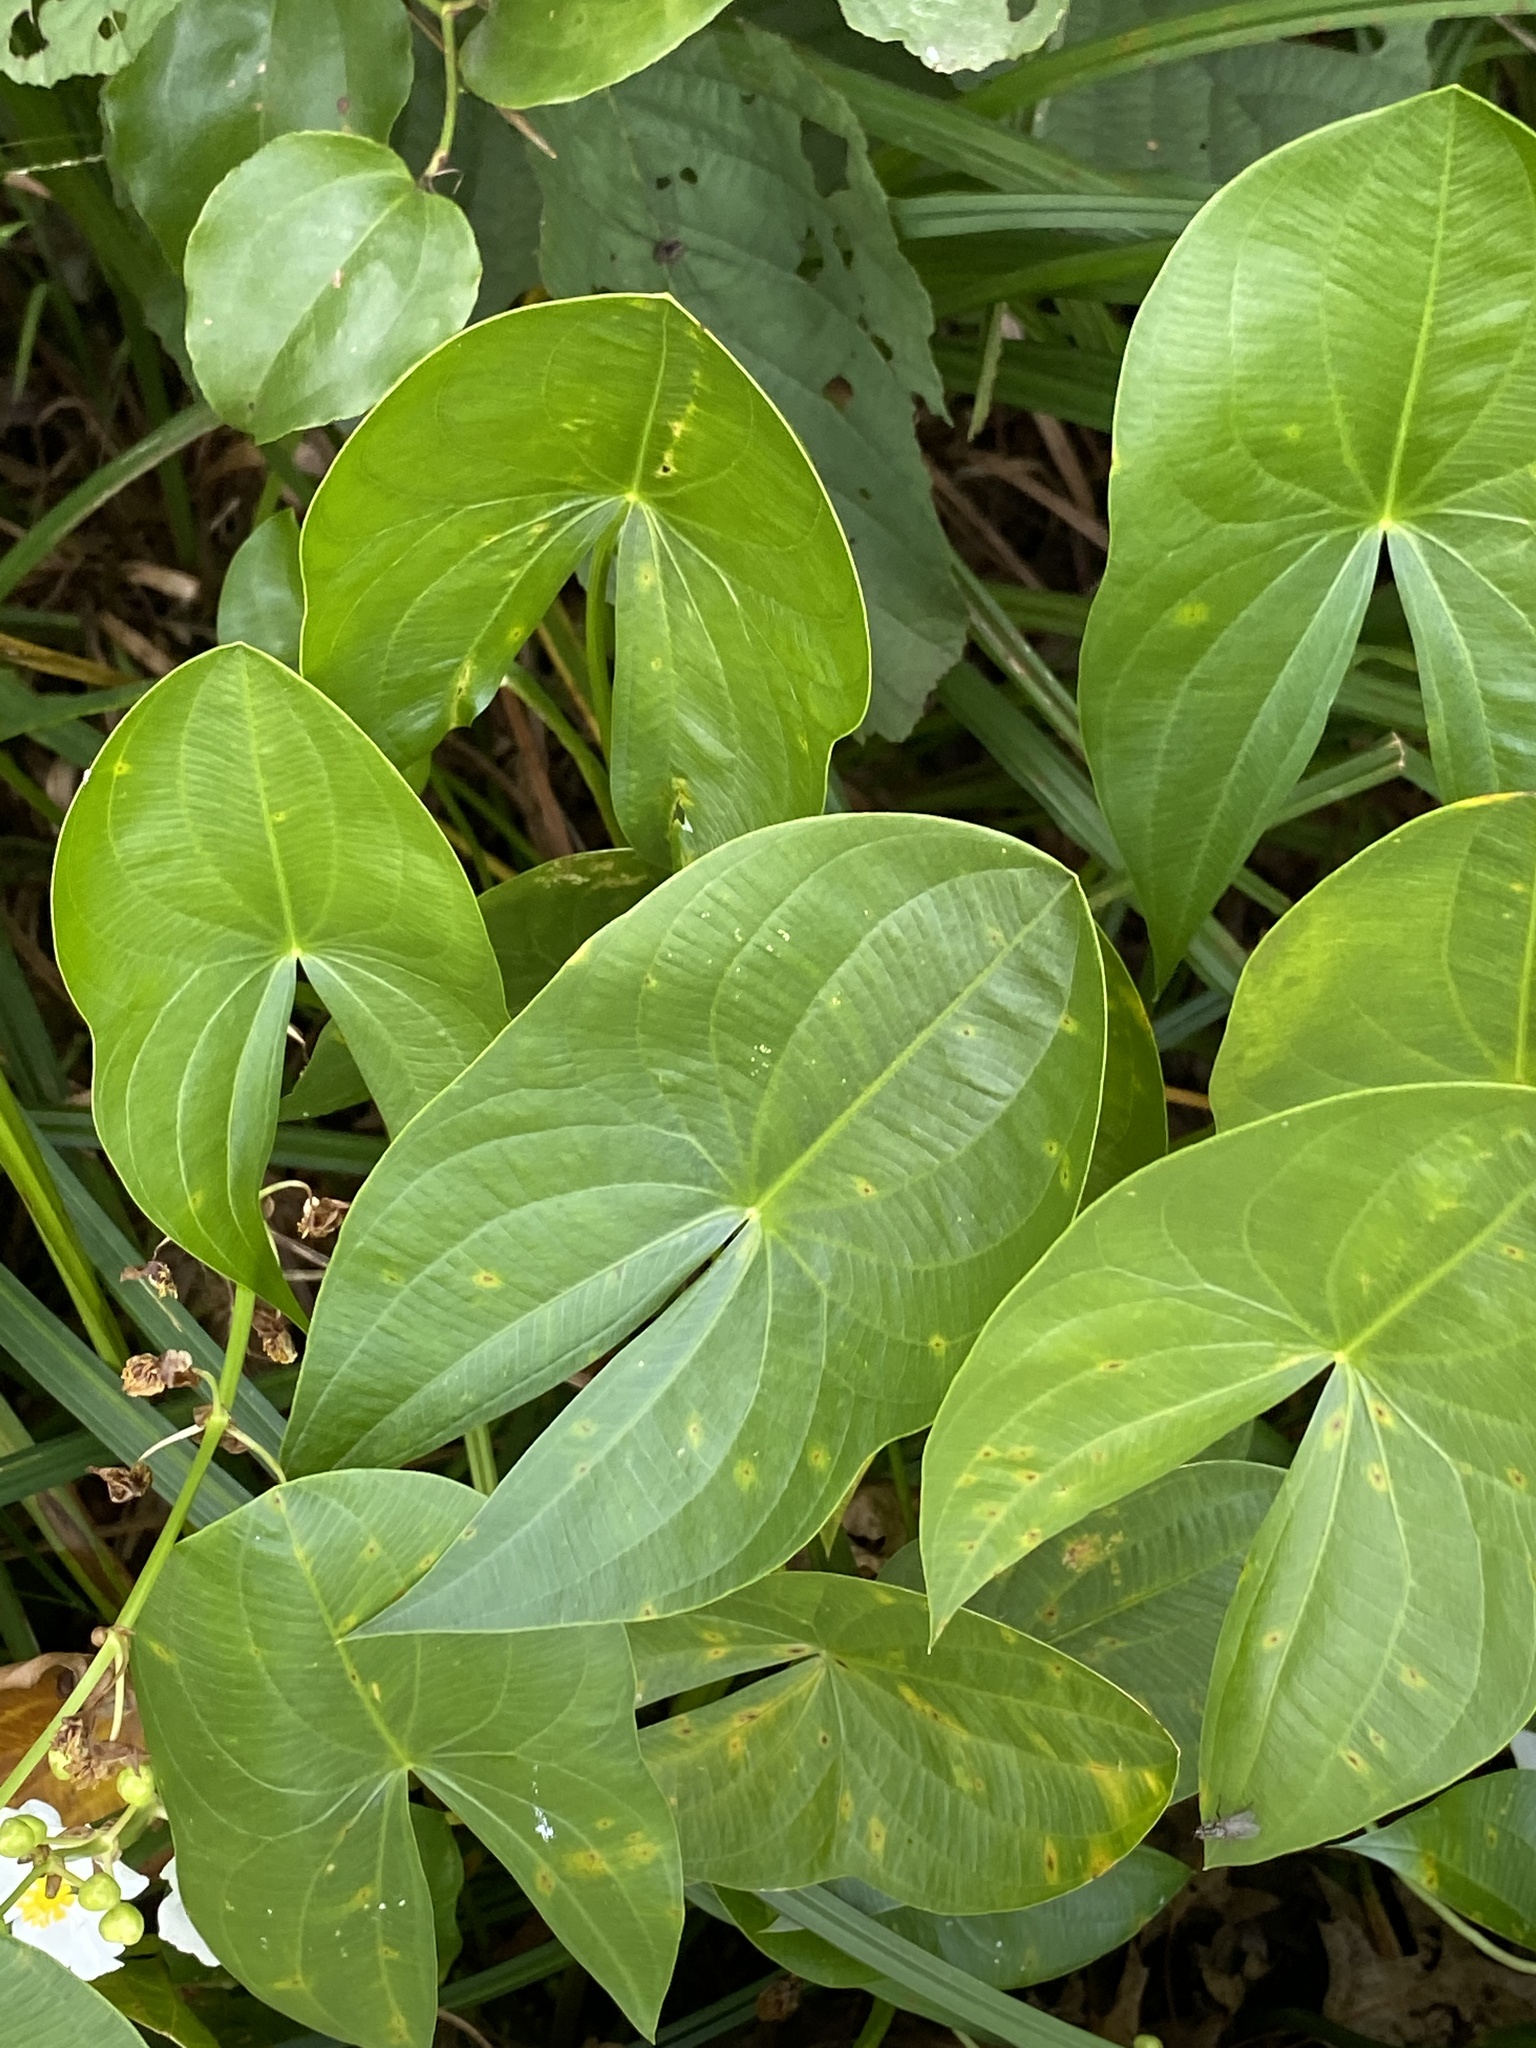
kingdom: Plantae
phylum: Tracheophyta
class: Liliopsida
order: Alismatales
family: Alismataceae
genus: Sagittaria
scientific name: Sagittaria latifolia
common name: Duck-potato
